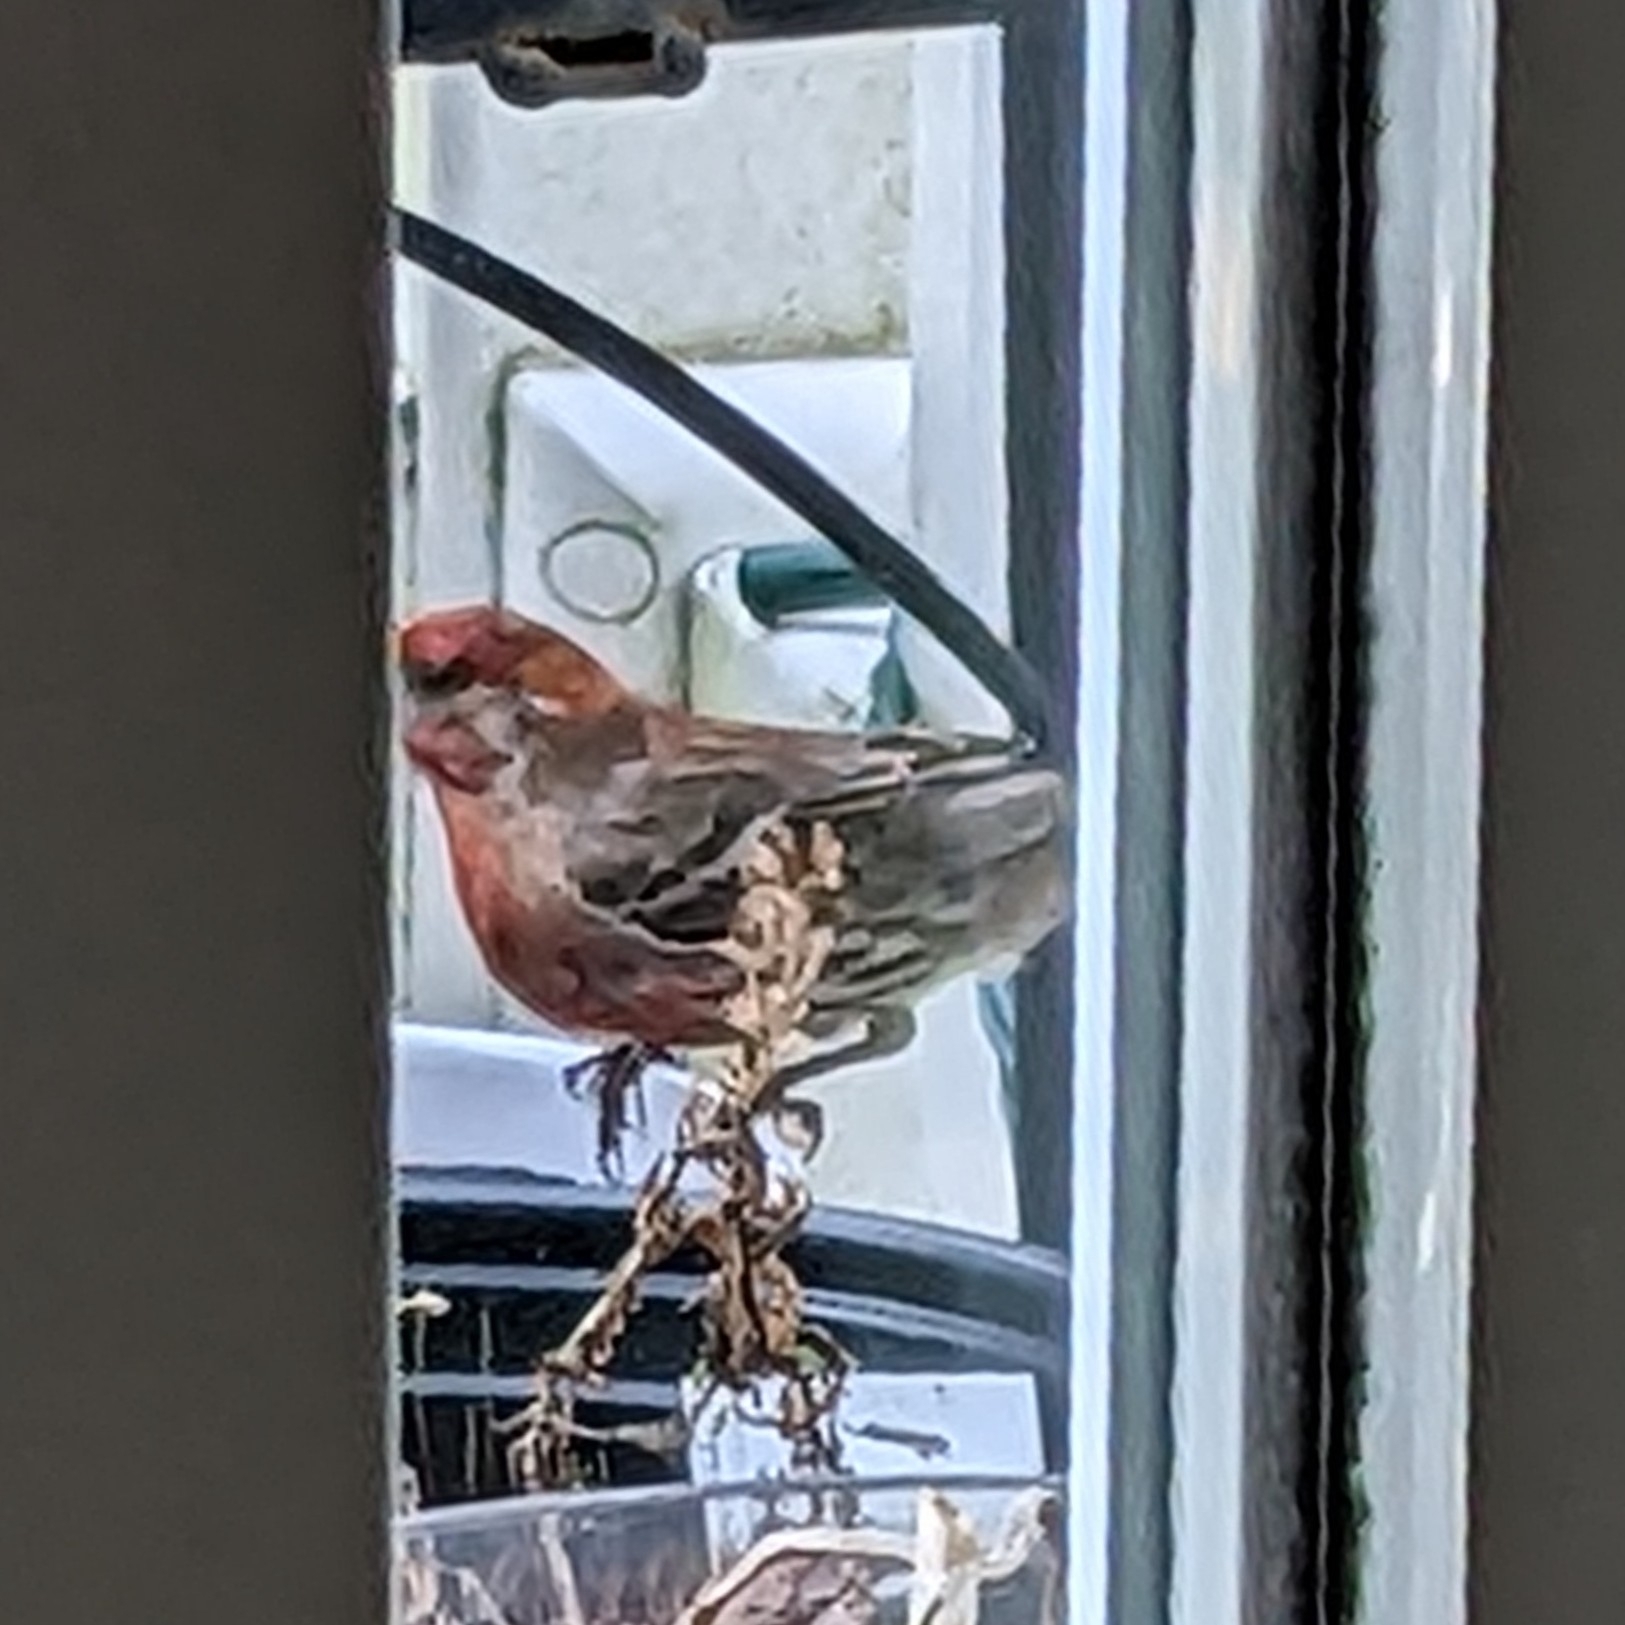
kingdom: Animalia
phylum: Chordata
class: Aves
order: Passeriformes
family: Fringillidae
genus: Haemorhous
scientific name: Haemorhous mexicanus
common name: House finch
